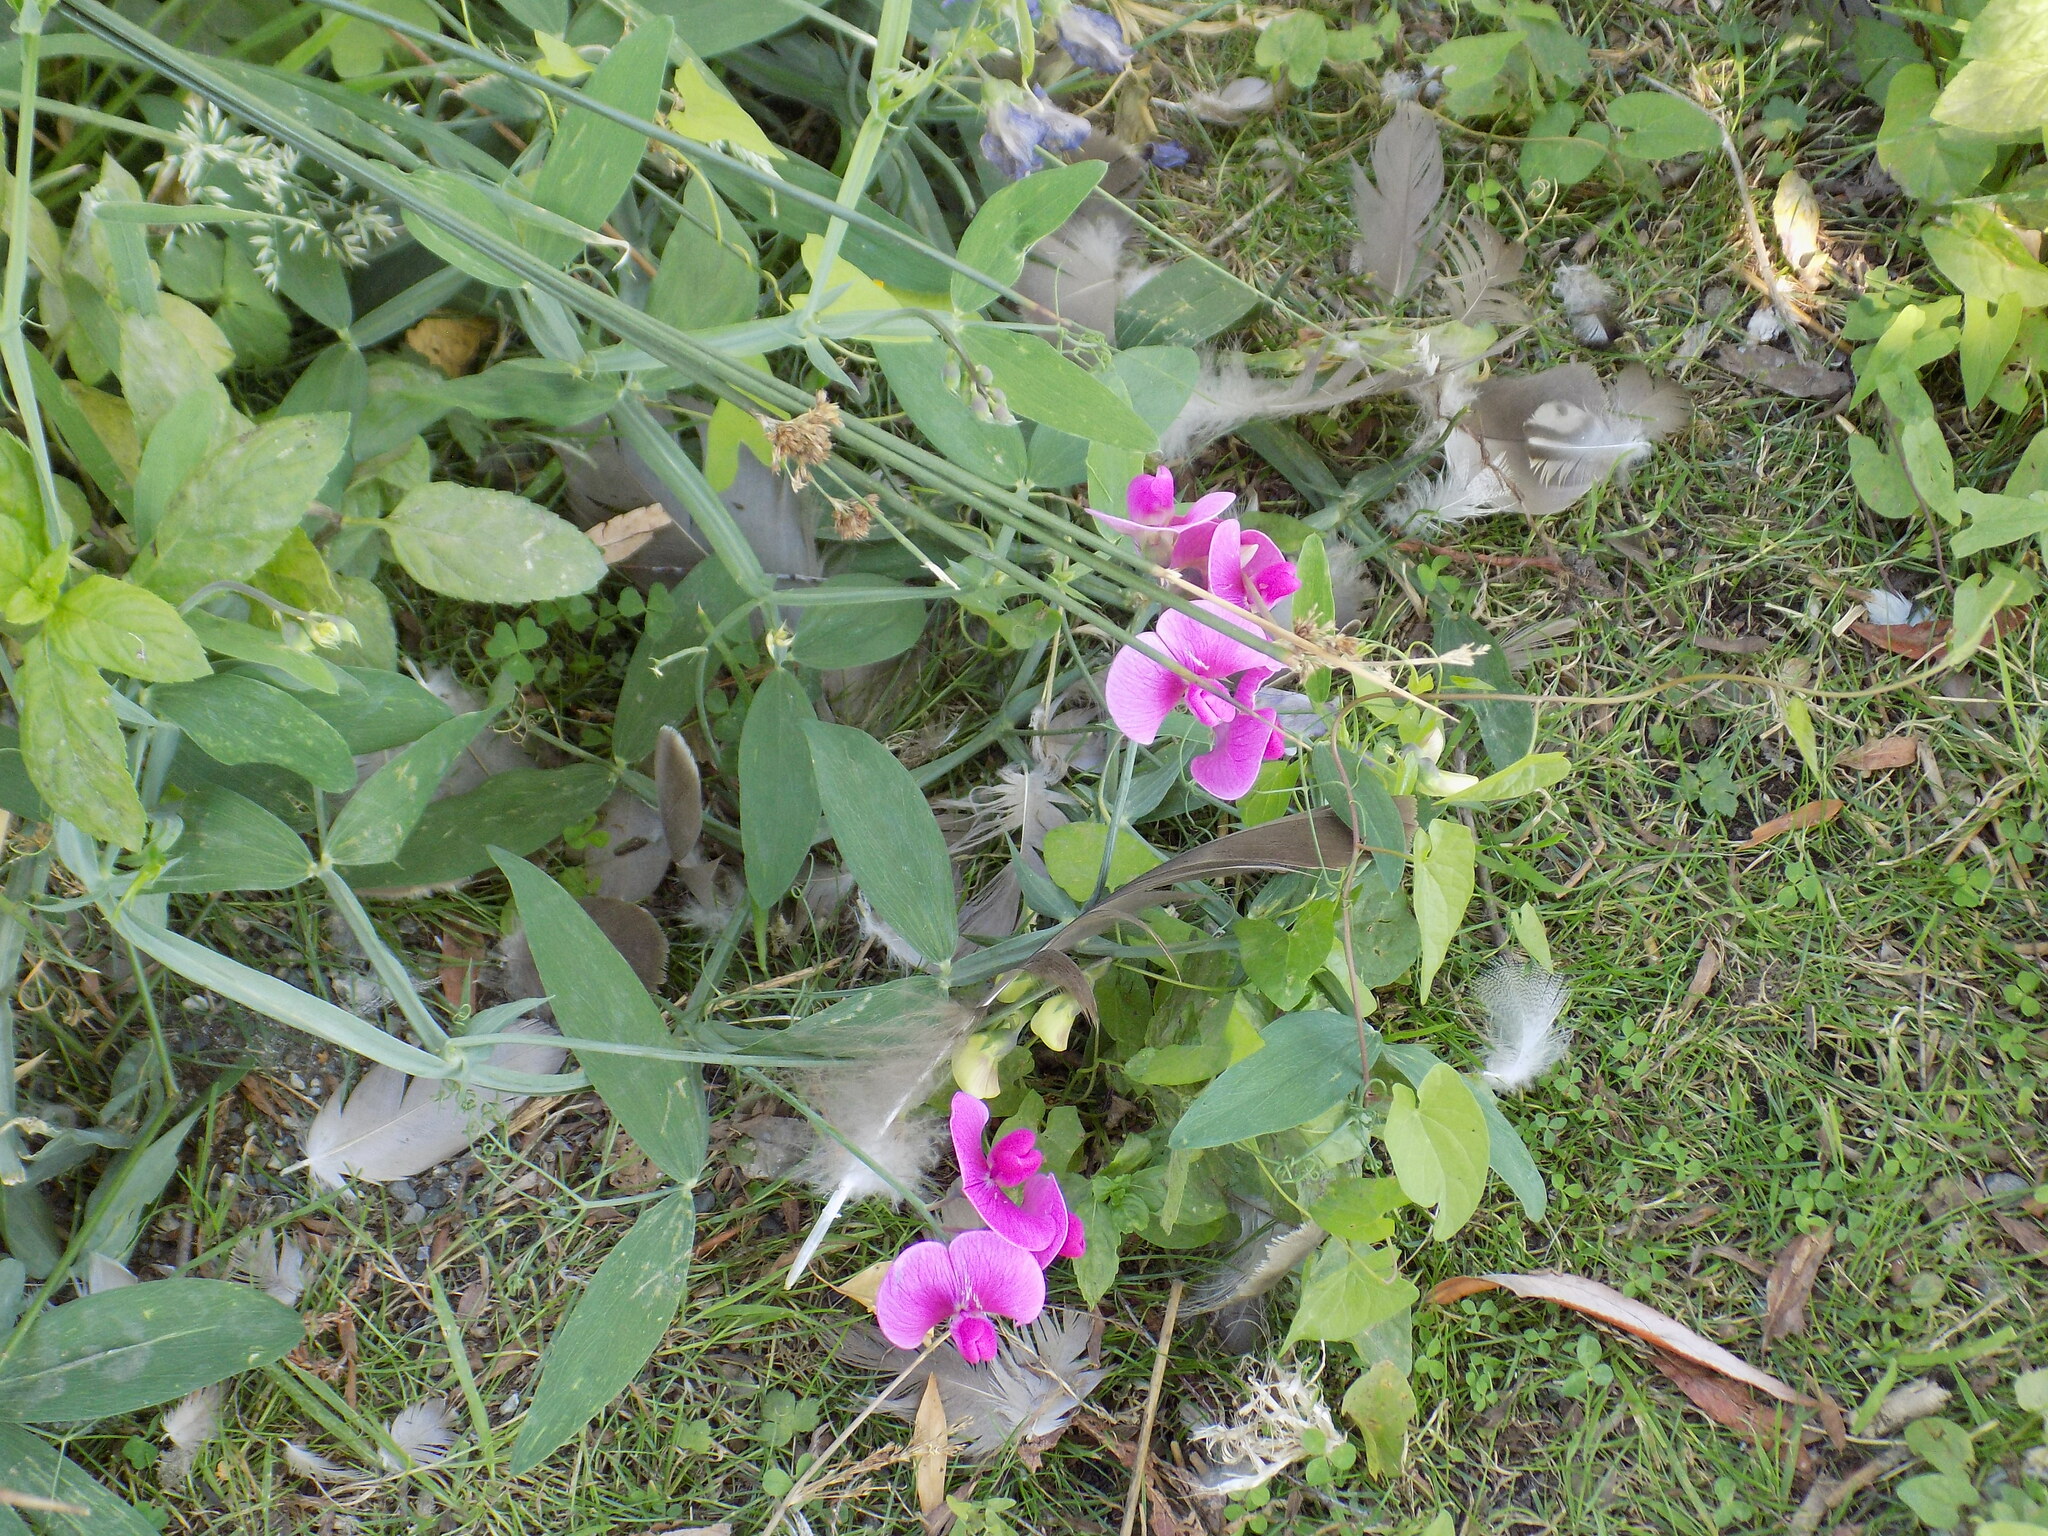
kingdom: Plantae
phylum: Tracheophyta
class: Magnoliopsida
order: Fabales
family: Fabaceae
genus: Lathyrus
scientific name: Lathyrus latifolius
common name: Perennial pea
